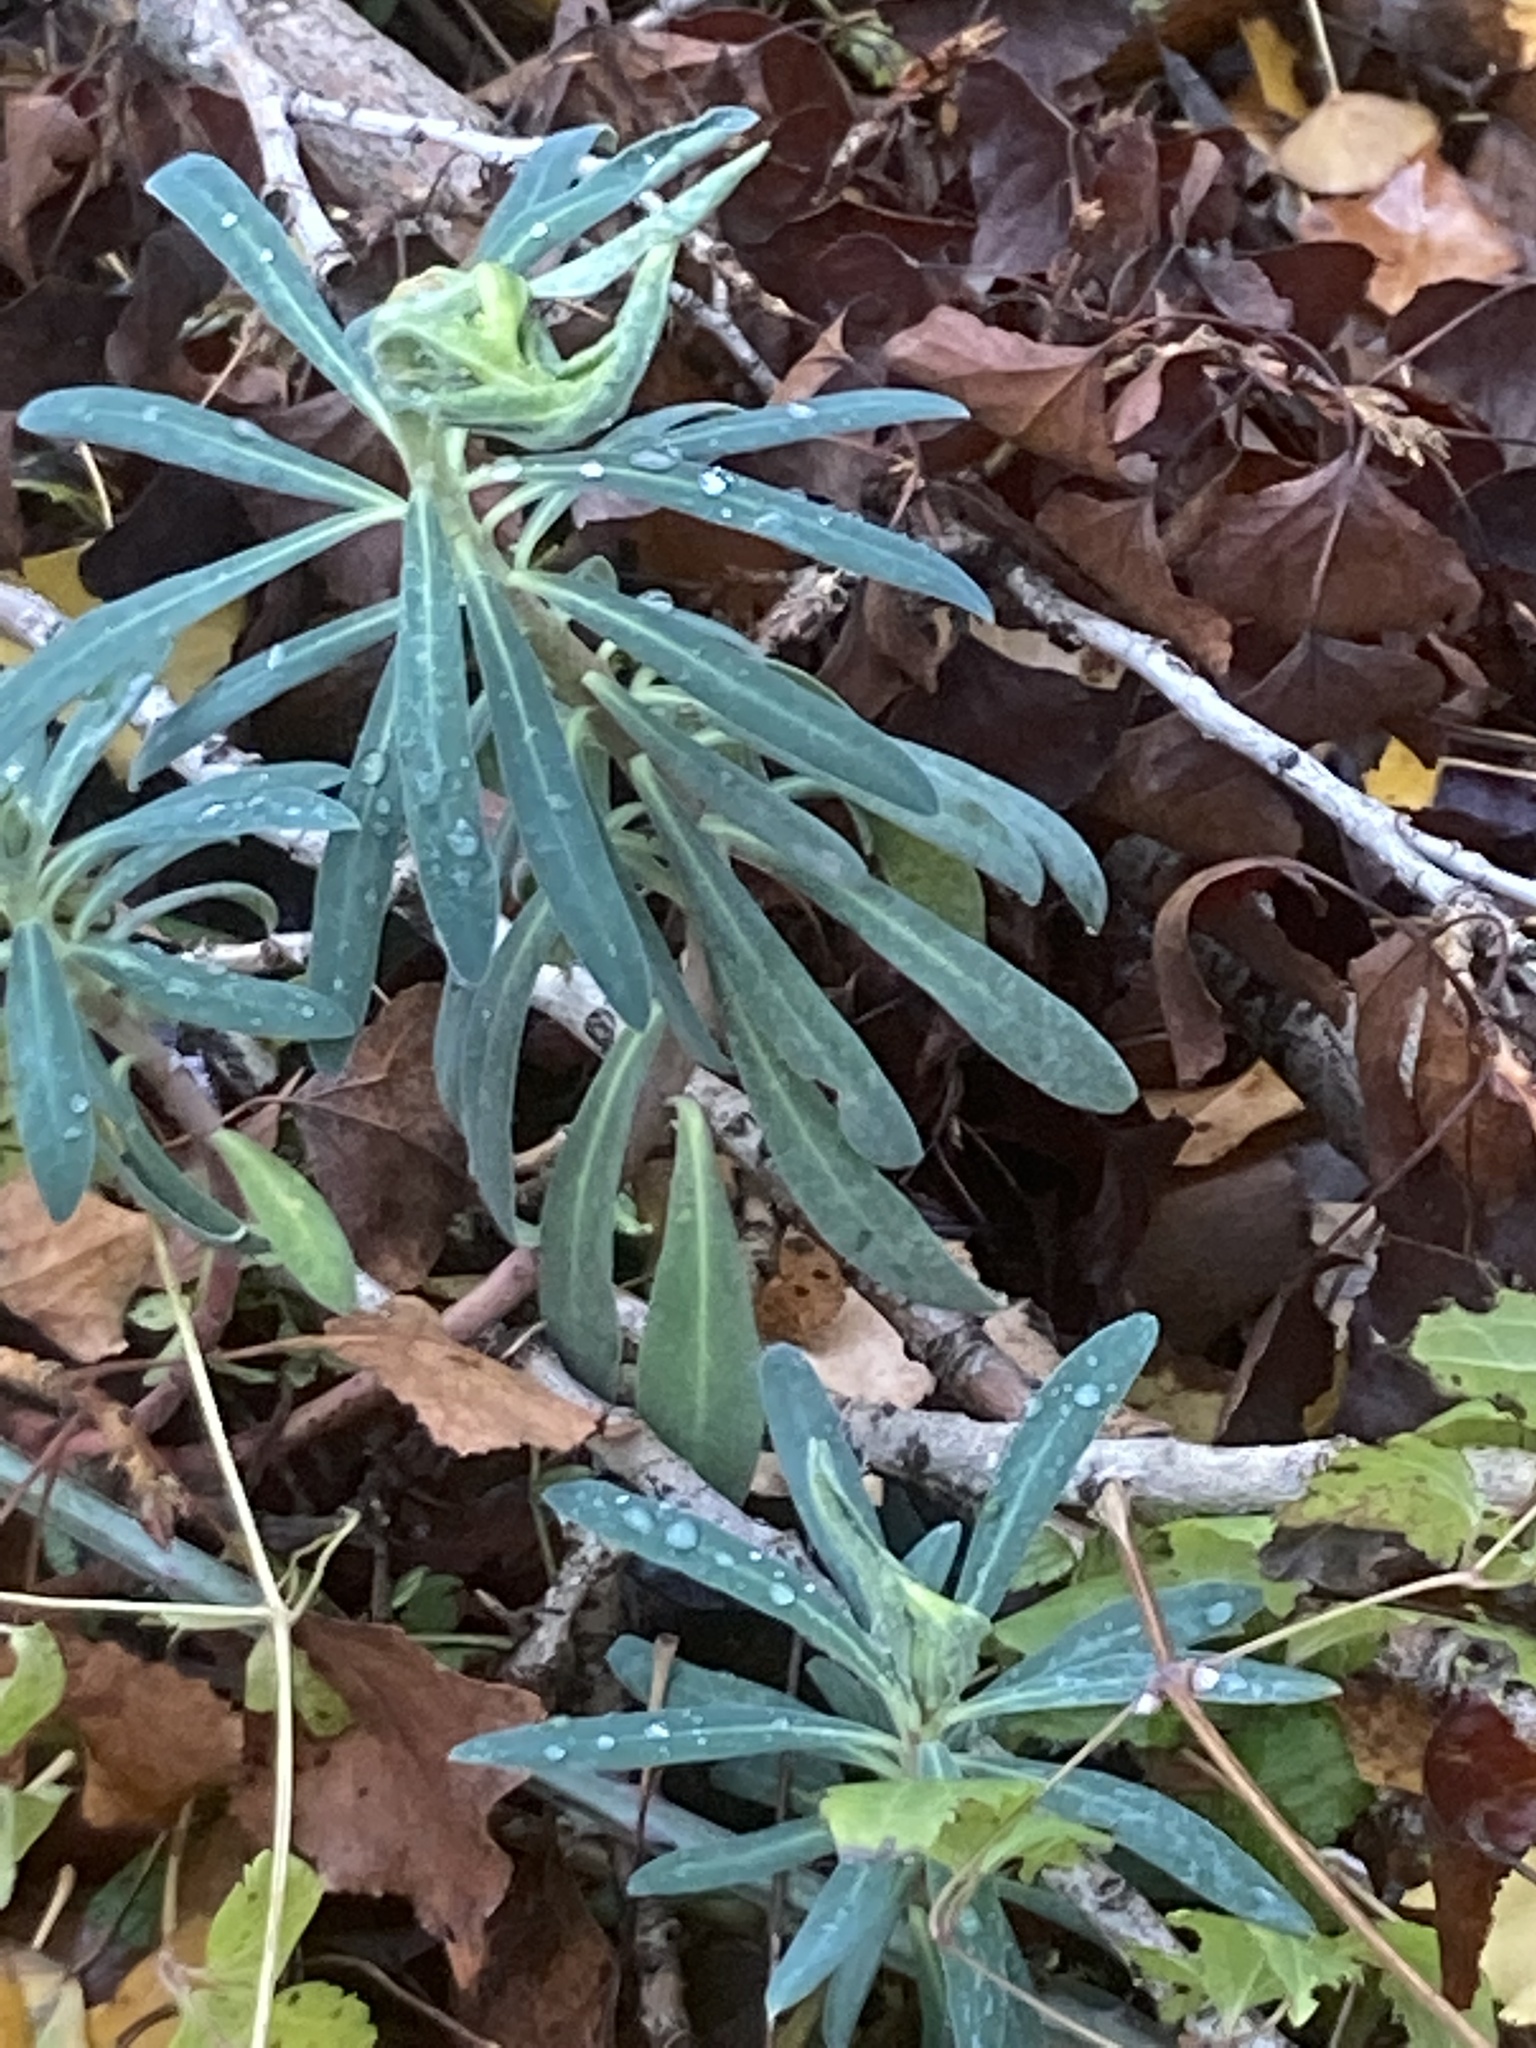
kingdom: Plantae
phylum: Tracheophyta
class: Magnoliopsida
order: Malpighiales
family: Euphorbiaceae
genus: Euphorbia
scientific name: Euphorbia characias
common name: Mediterranean spurge
